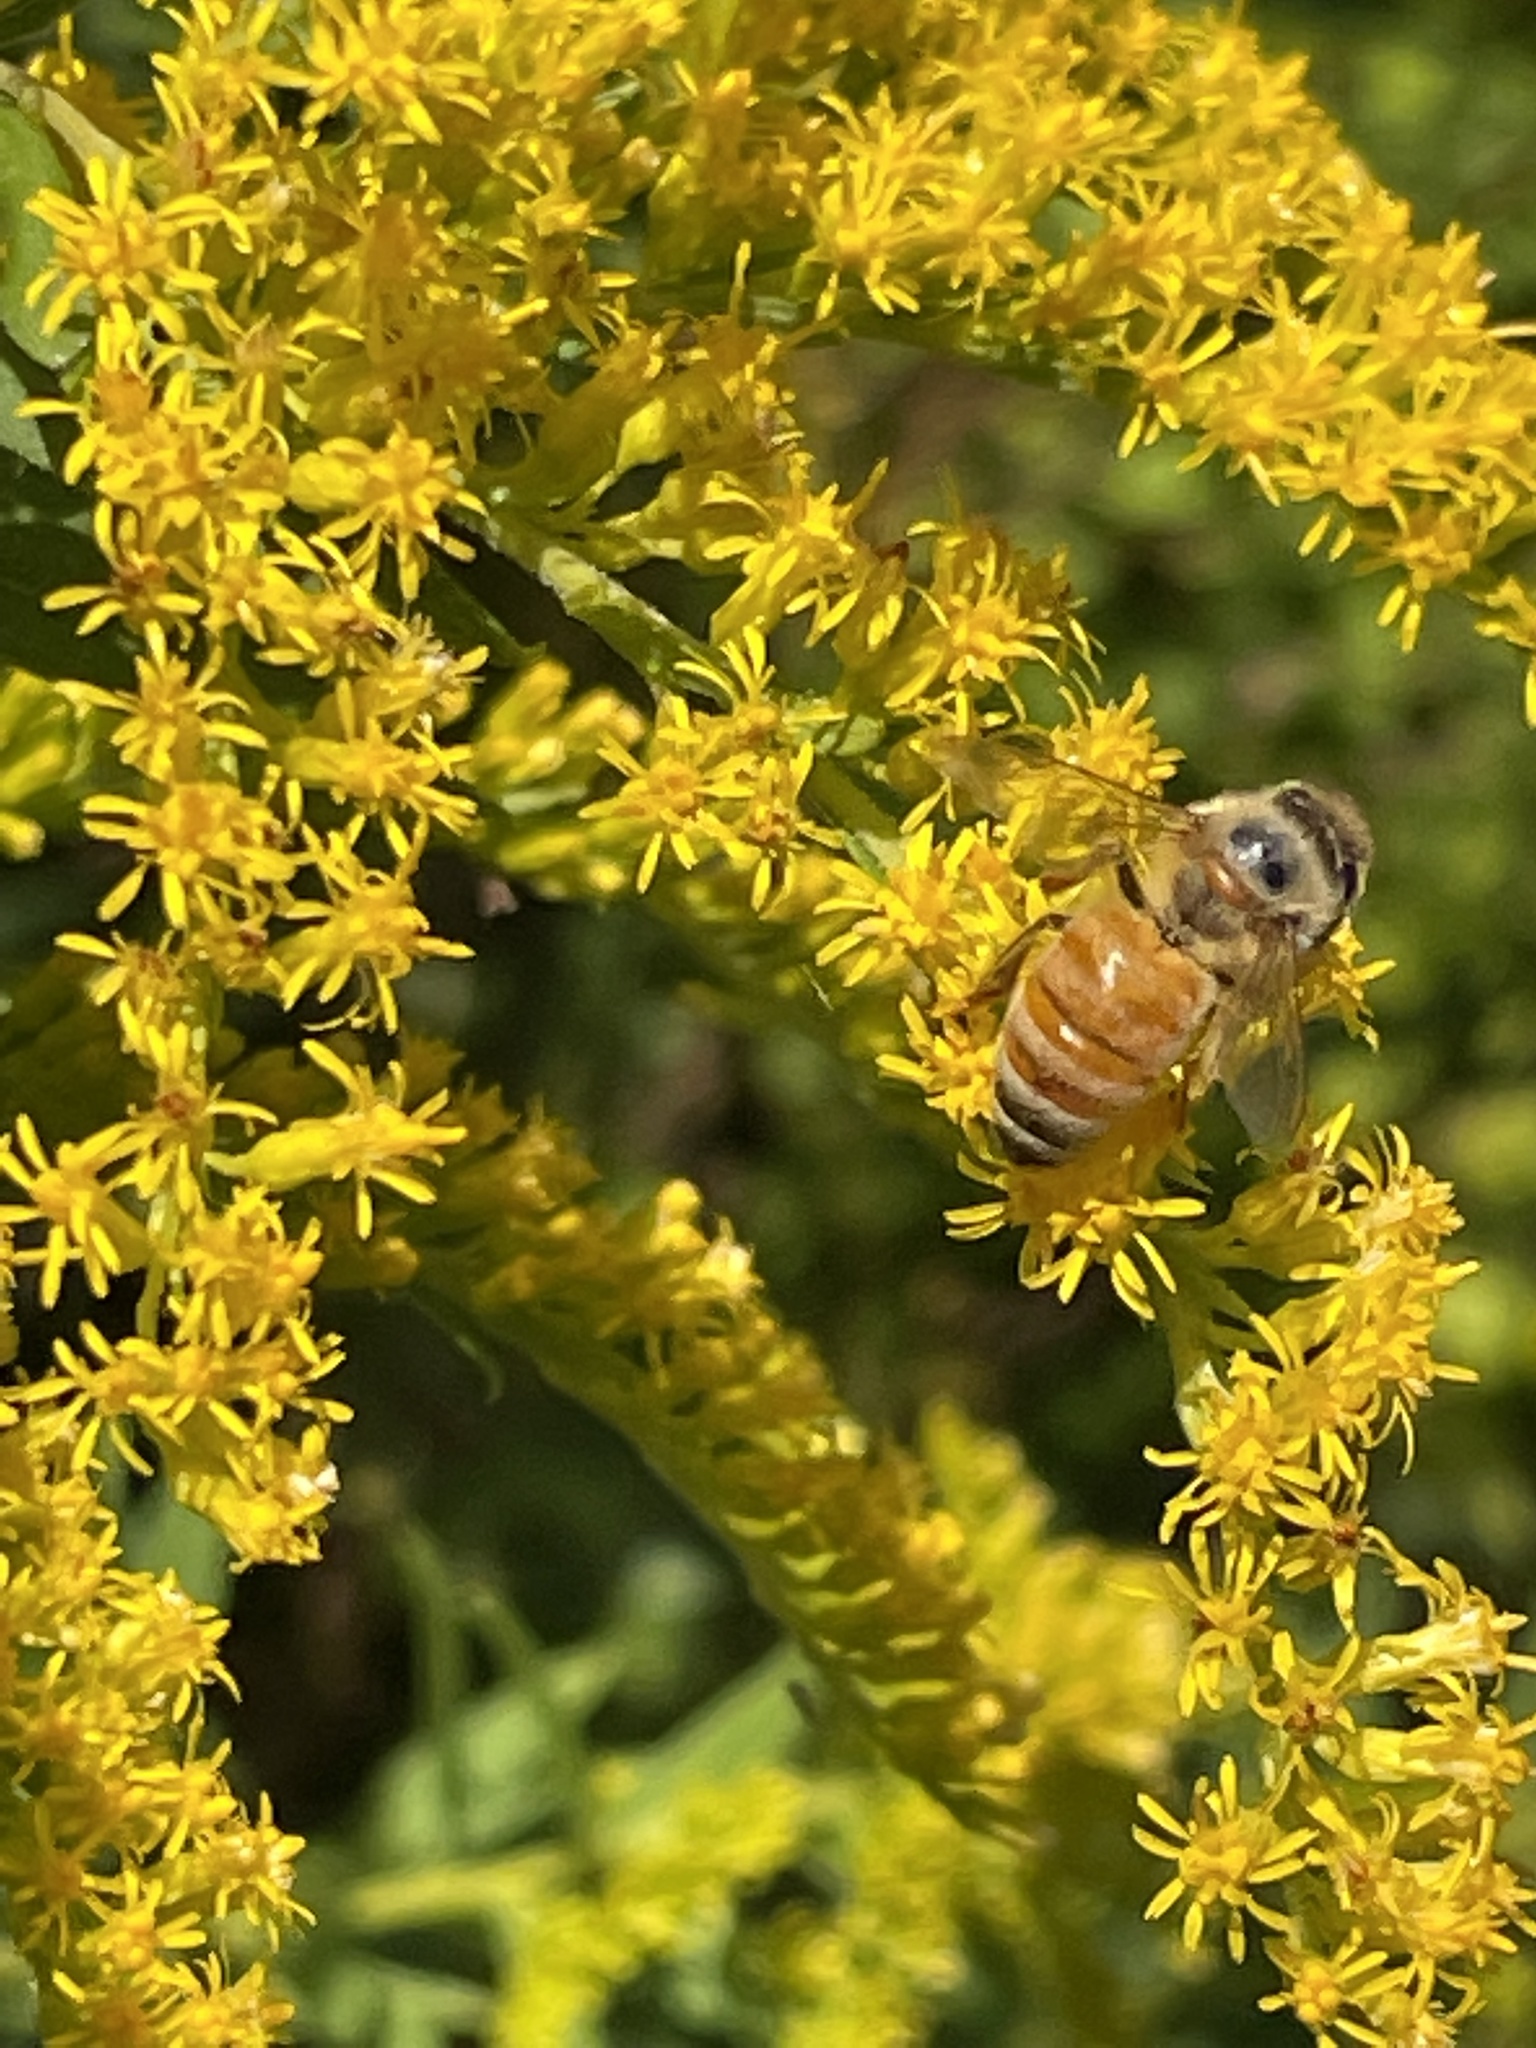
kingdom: Animalia
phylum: Arthropoda
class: Insecta
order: Hymenoptera
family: Apidae
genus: Apis
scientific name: Apis mellifera
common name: Honey bee
